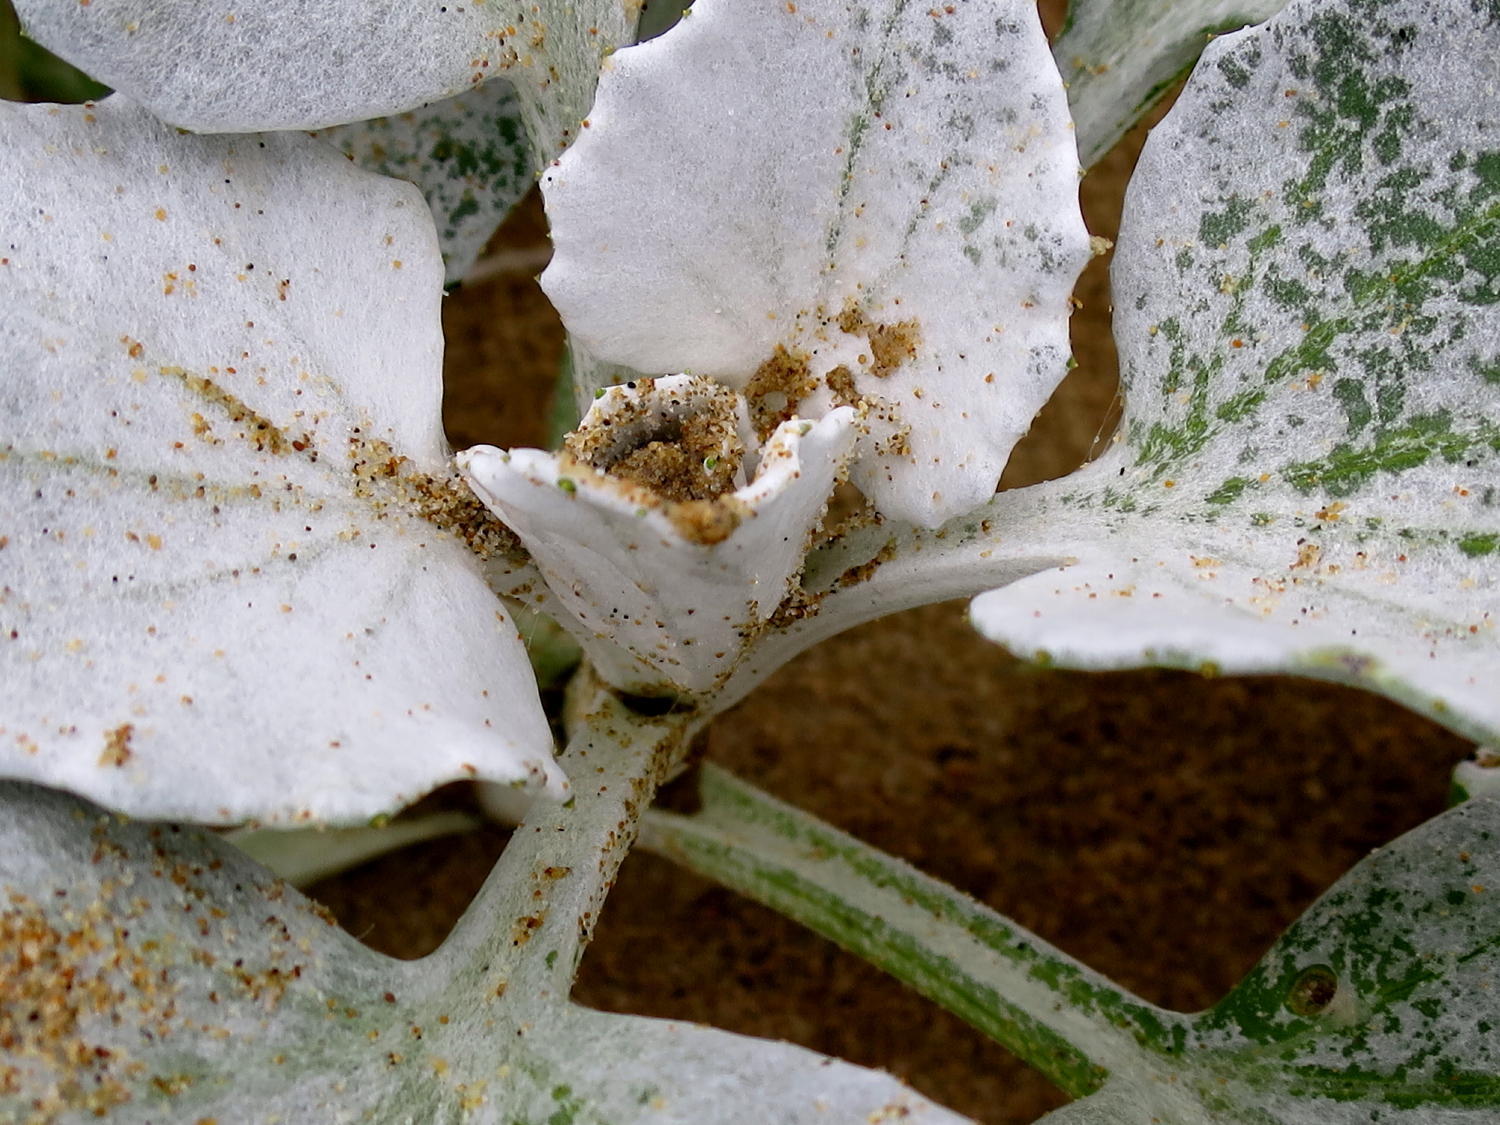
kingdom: Plantae
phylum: Tracheophyta
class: Magnoliopsida
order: Asterales
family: Asteraceae
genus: Arctotheca
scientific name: Arctotheca populifolia
